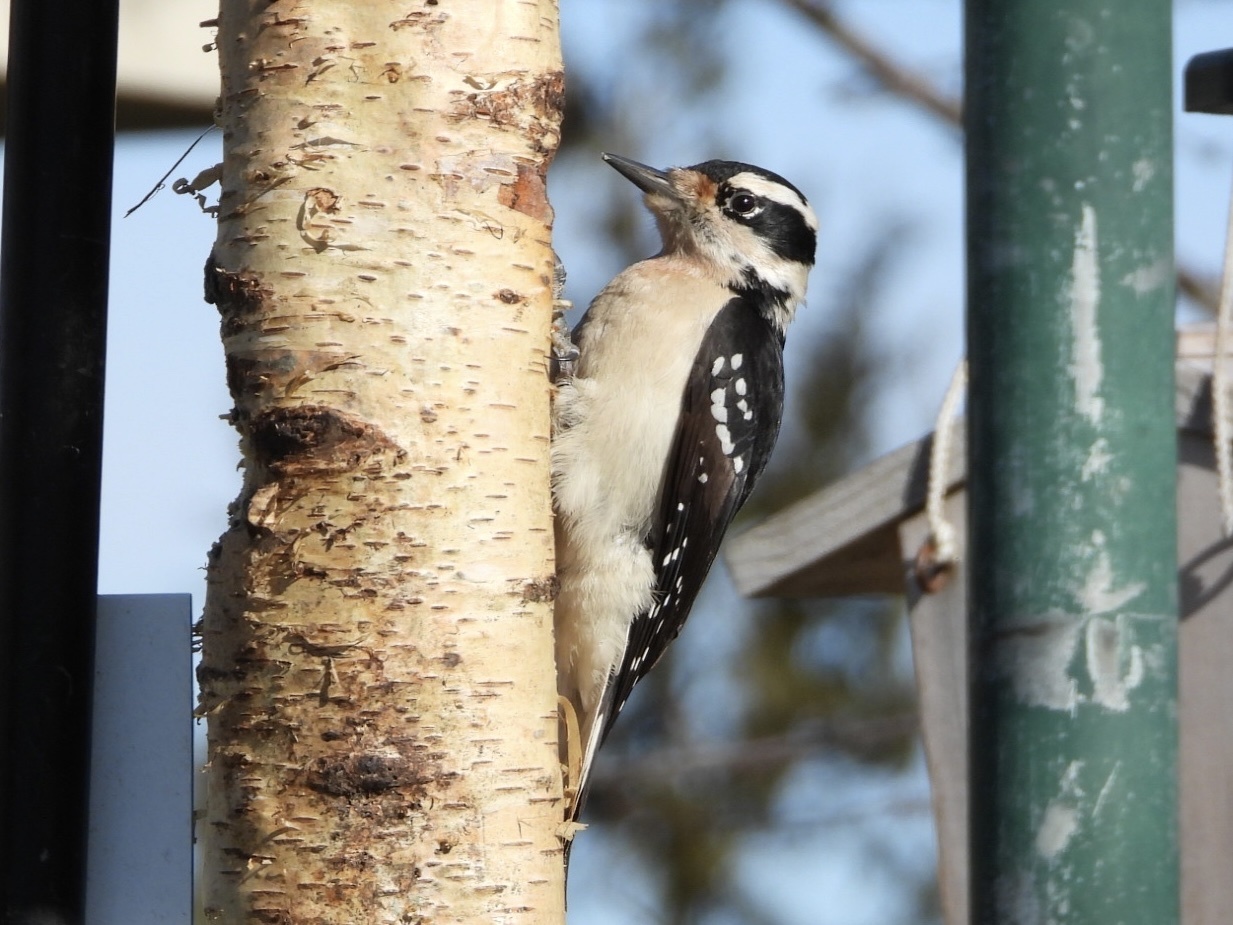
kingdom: Animalia
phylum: Chordata
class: Aves
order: Piciformes
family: Picidae
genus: Leuconotopicus
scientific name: Leuconotopicus villosus
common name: Hairy woodpecker
